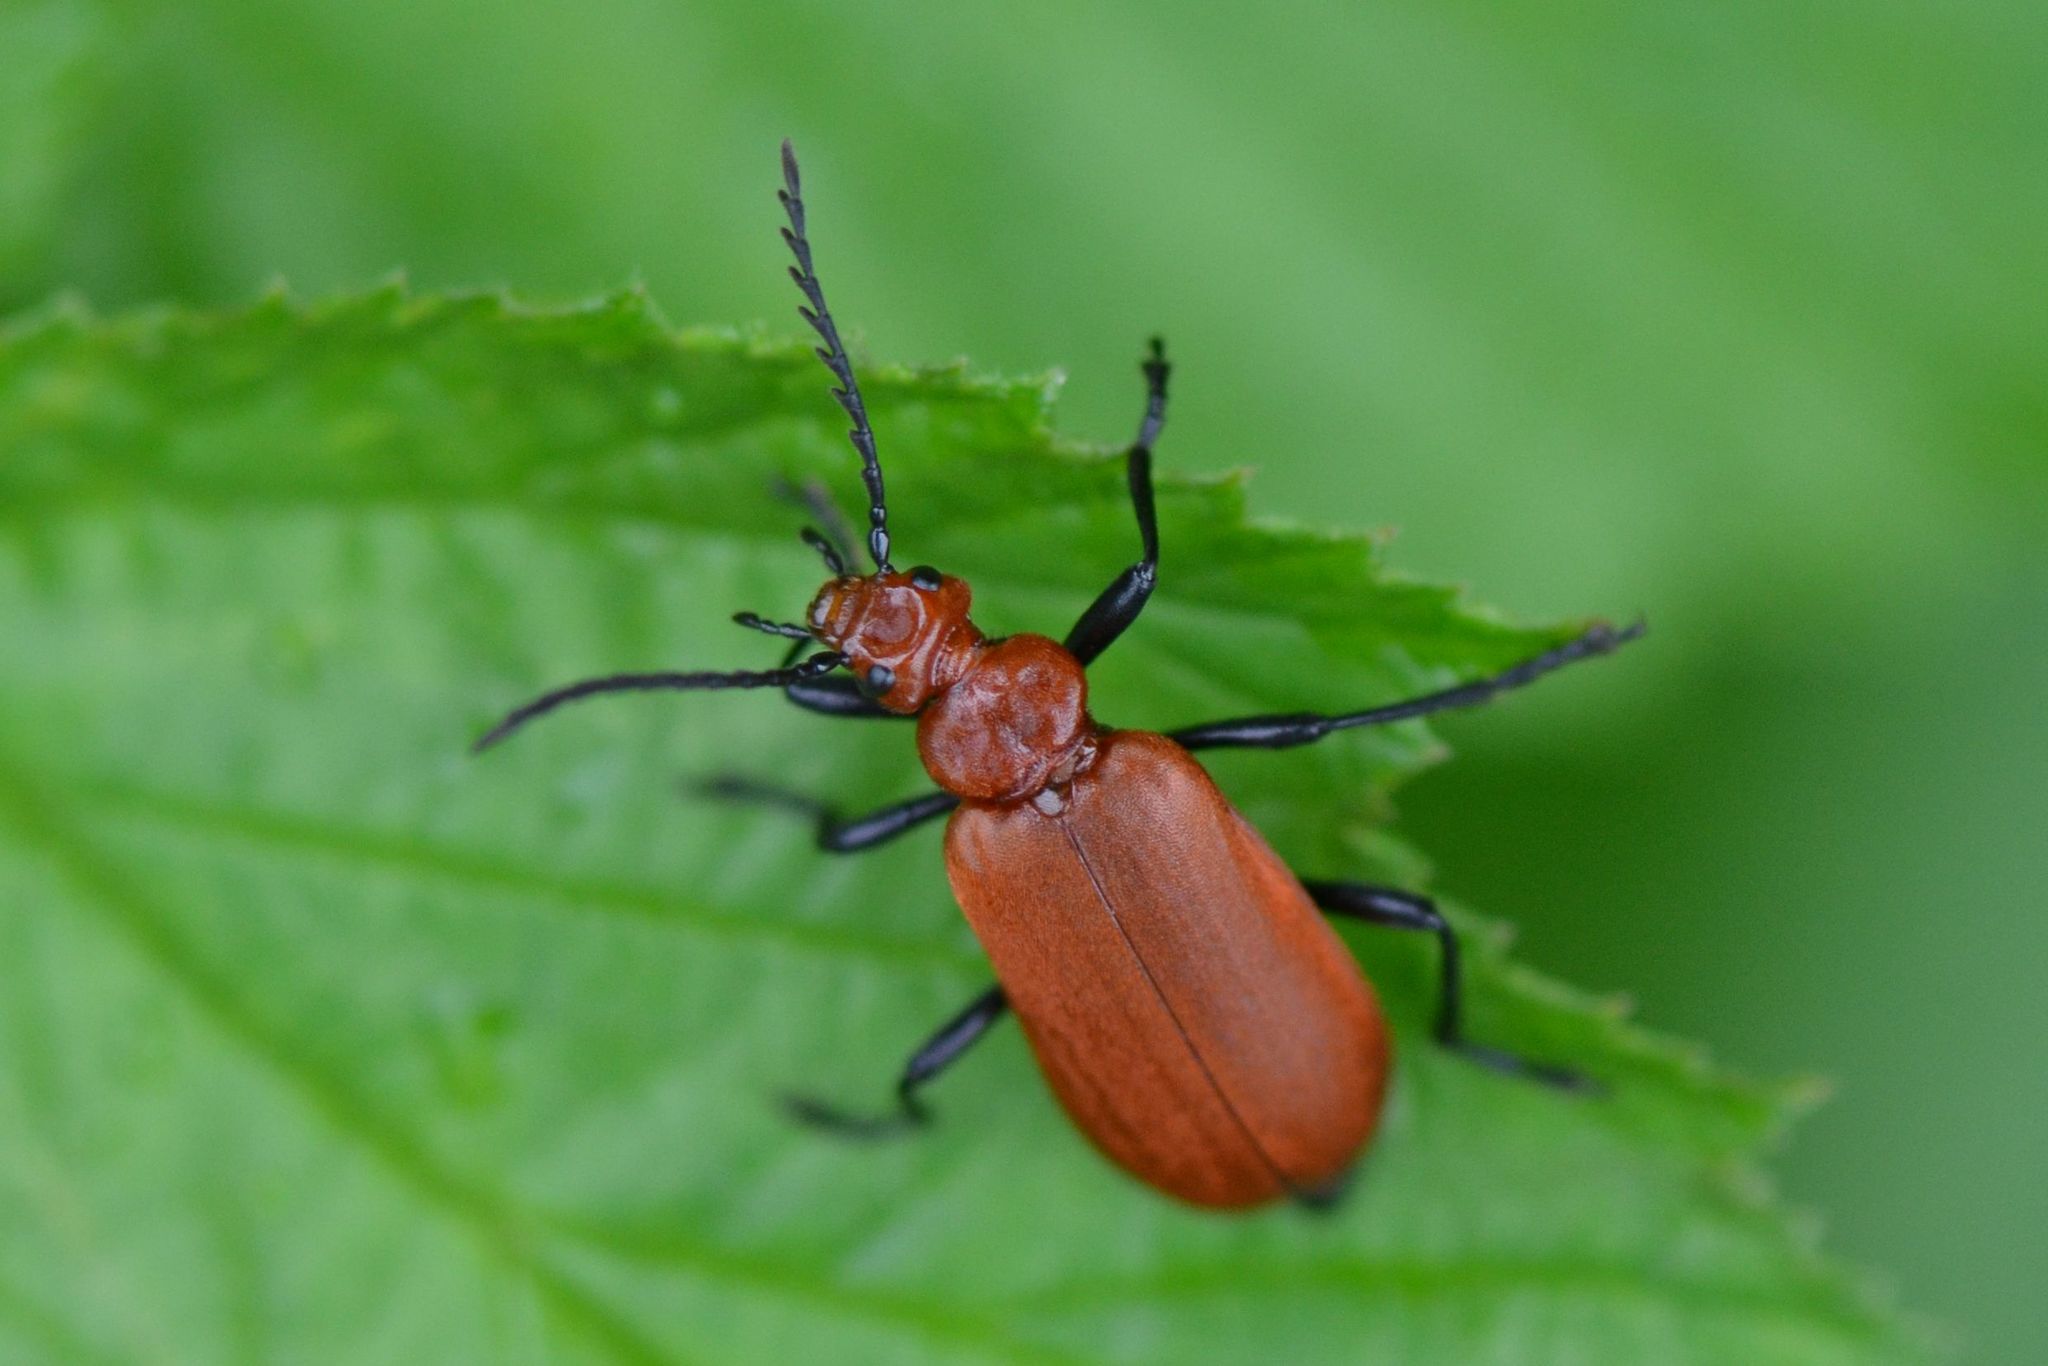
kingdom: Animalia
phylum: Arthropoda
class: Insecta
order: Coleoptera
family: Pyrochroidae
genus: Pyrochroa
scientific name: Pyrochroa serraticornis
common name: Red-headed cardinal beetle
